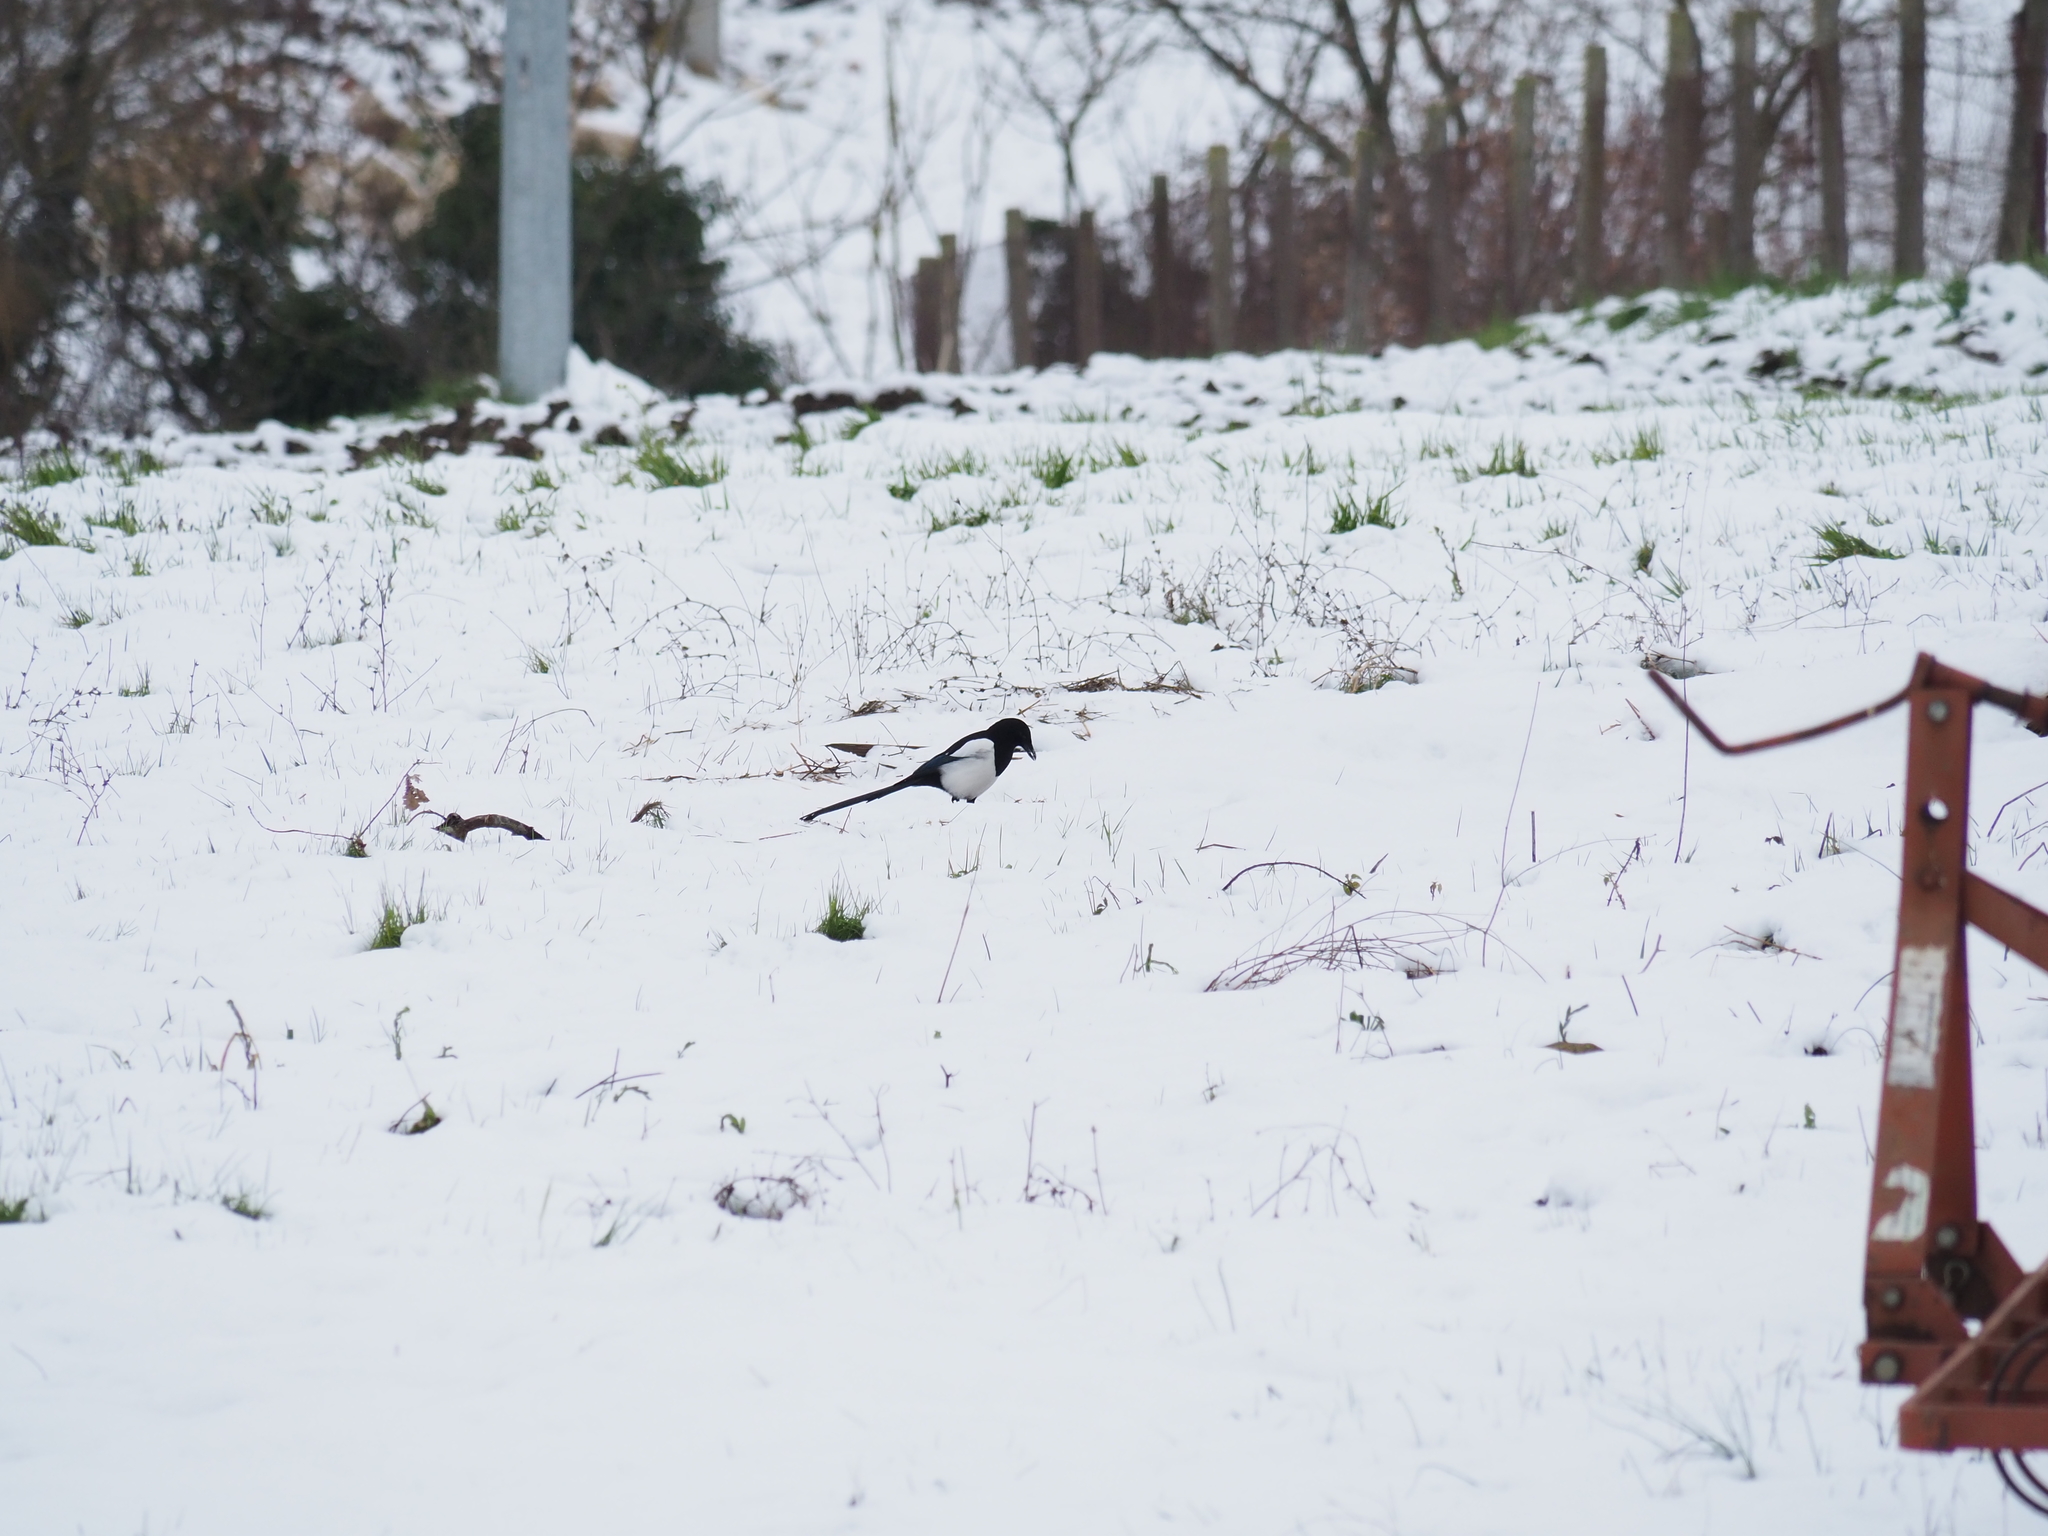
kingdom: Animalia
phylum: Chordata
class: Aves
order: Passeriformes
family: Corvidae
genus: Pica
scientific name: Pica pica
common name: Eurasian magpie
